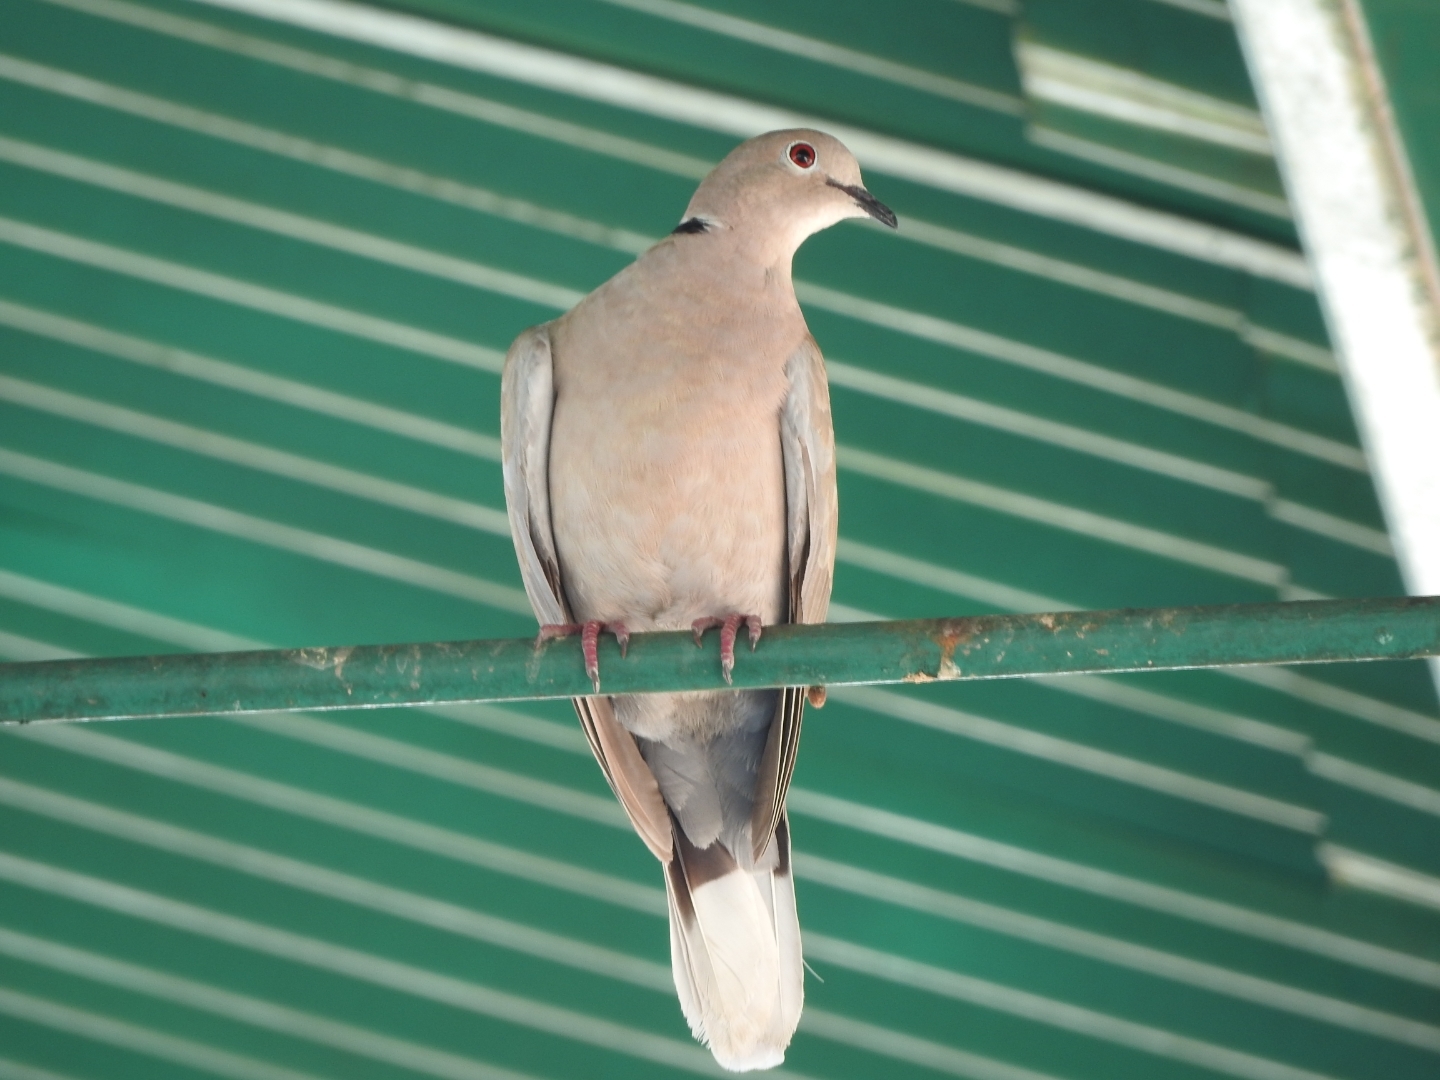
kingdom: Animalia
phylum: Chordata
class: Aves
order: Columbiformes
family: Columbidae
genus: Streptopelia
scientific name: Streptopelia decaocto
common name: Eurasian collared dove
